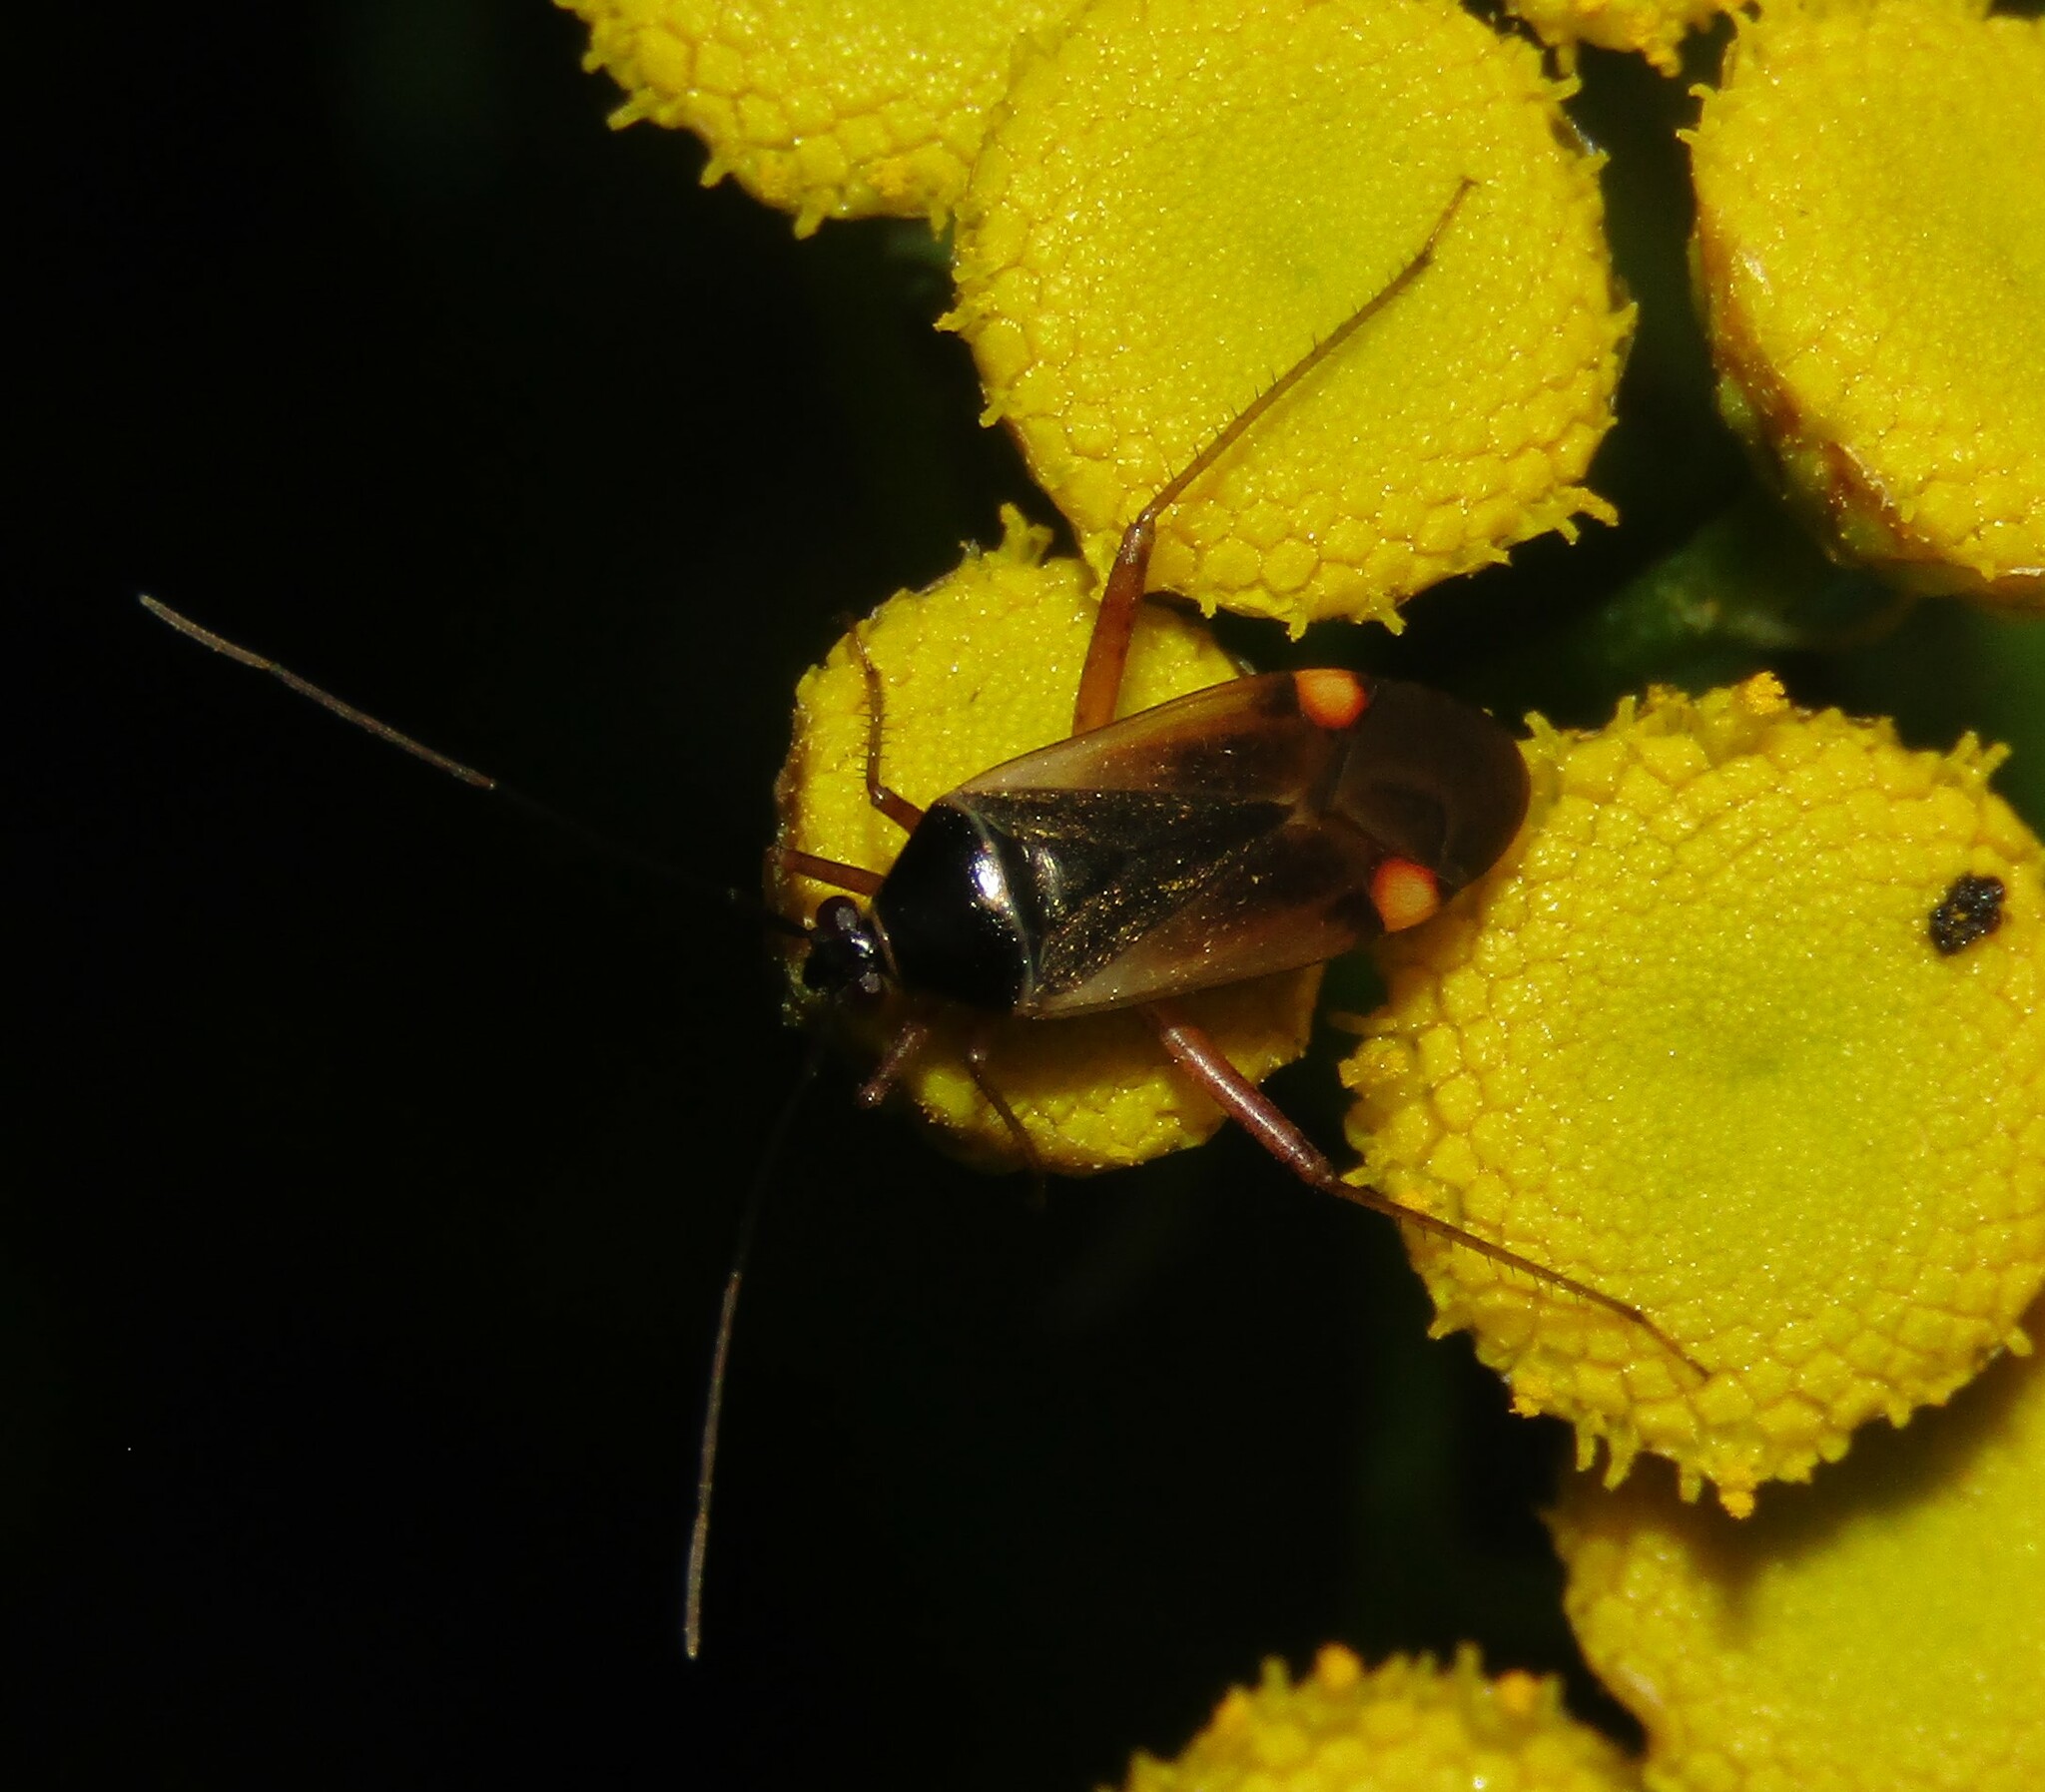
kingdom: Animalia
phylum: Arthropoda
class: Insecta
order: Hemiptera
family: Miridae
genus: Adelphocoris
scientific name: Adelphocoris seticornis
